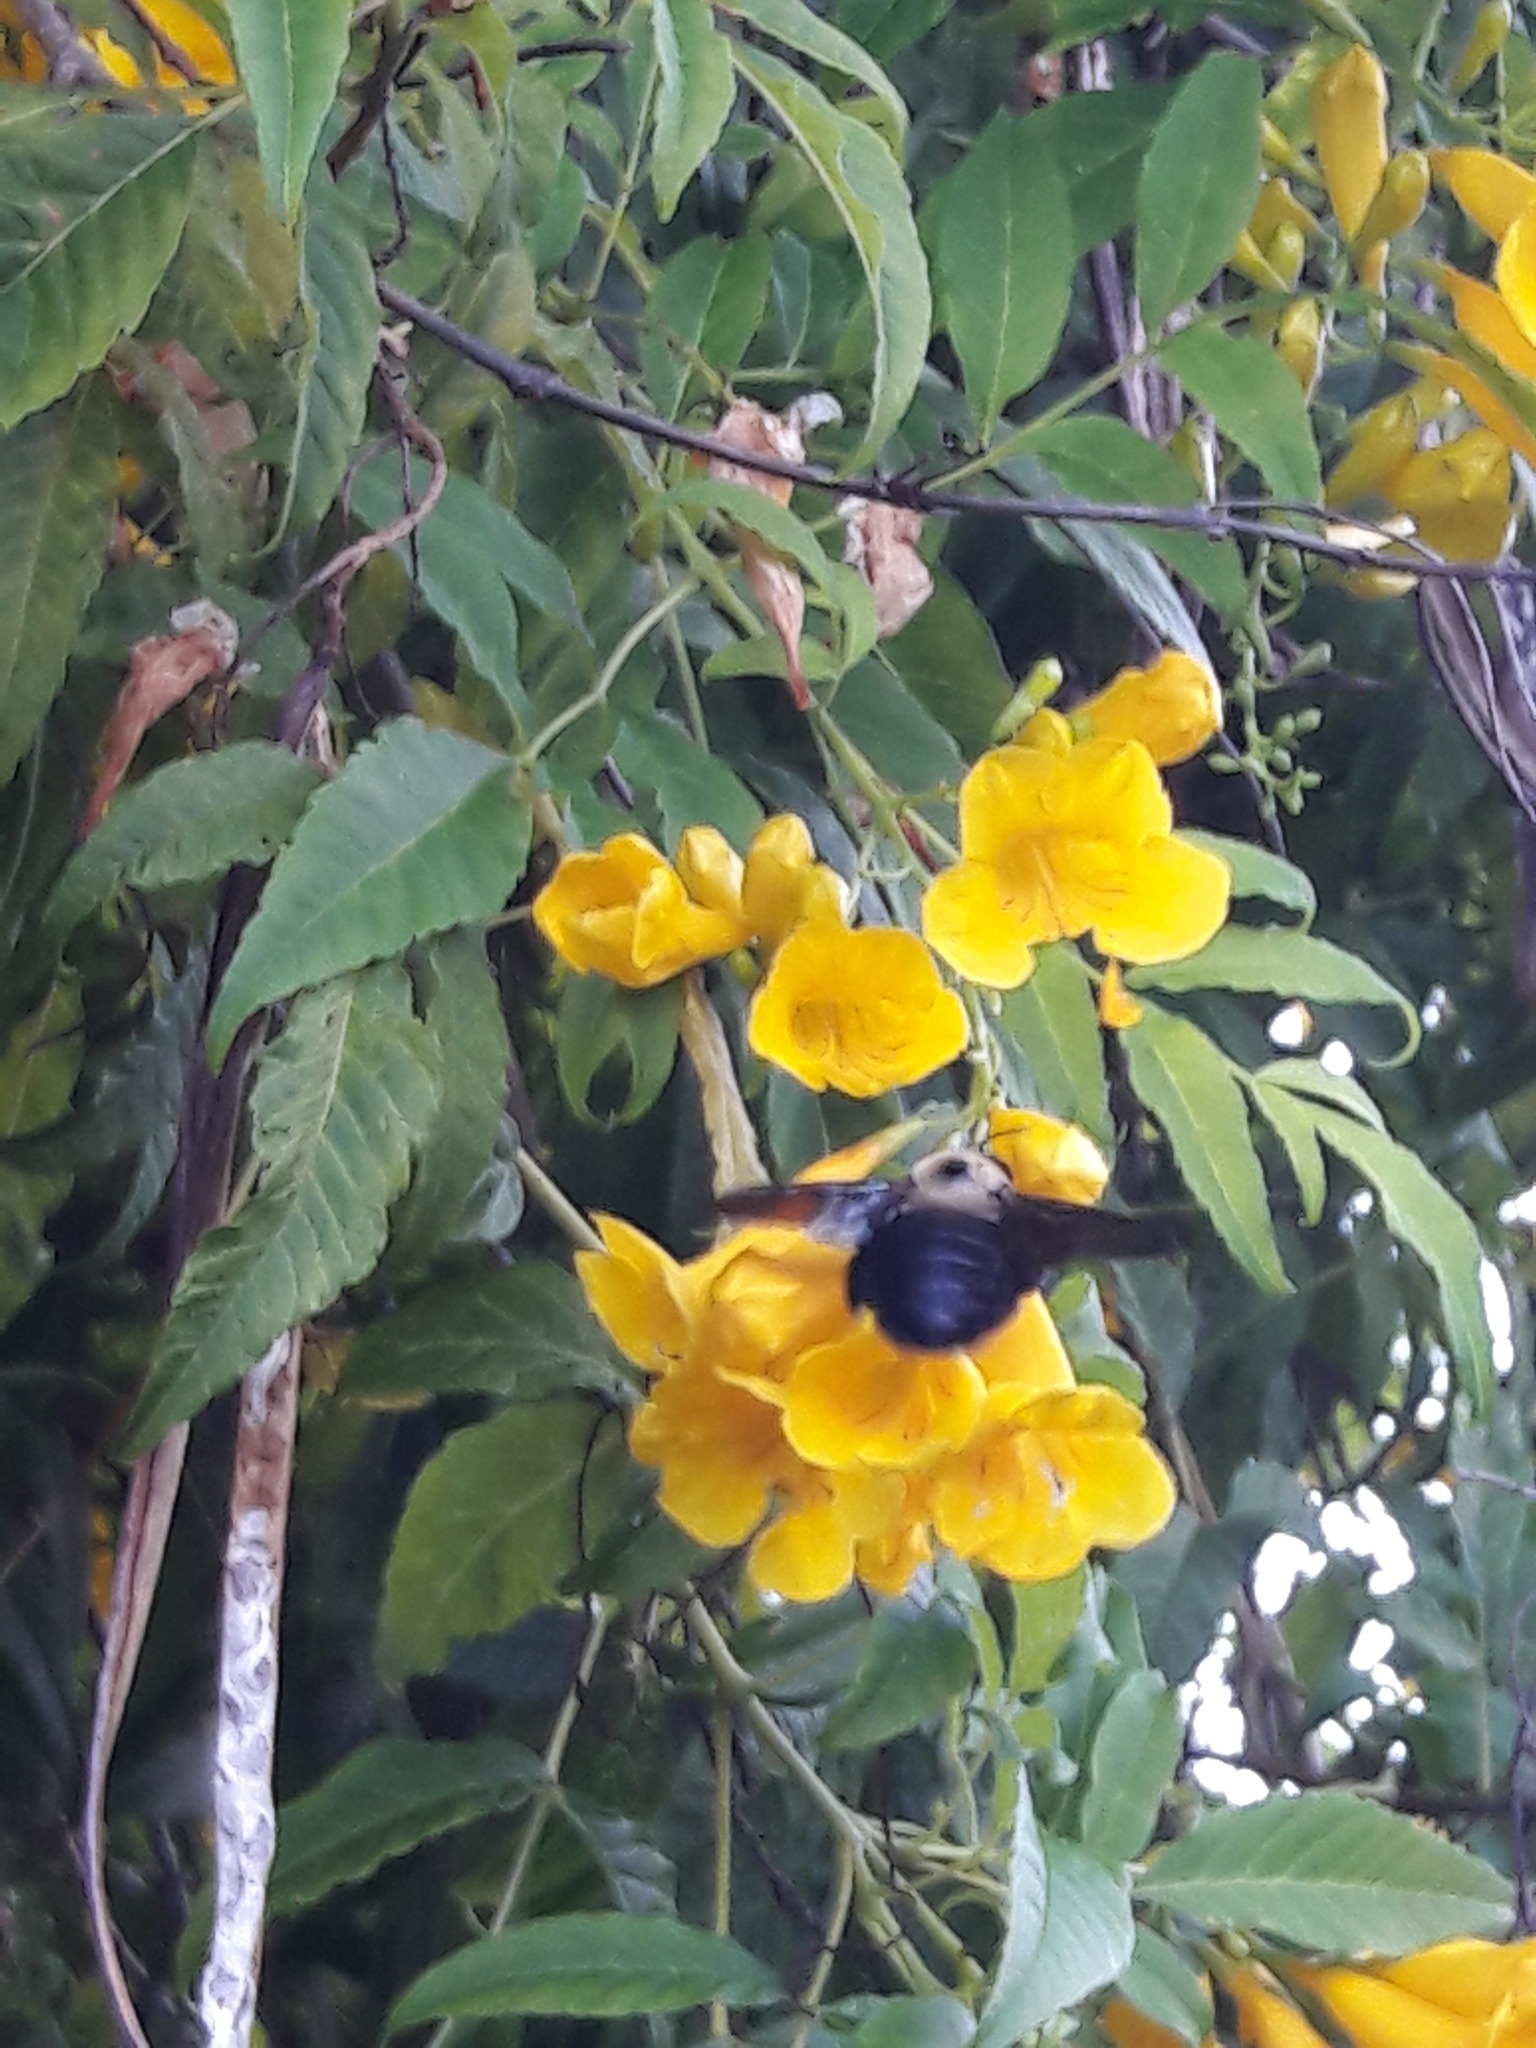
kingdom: Animalia
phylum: Arthropoda
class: Insecta
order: Hymenoptera
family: Apidae
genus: Xylocopa
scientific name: Xylocopa grisescens
